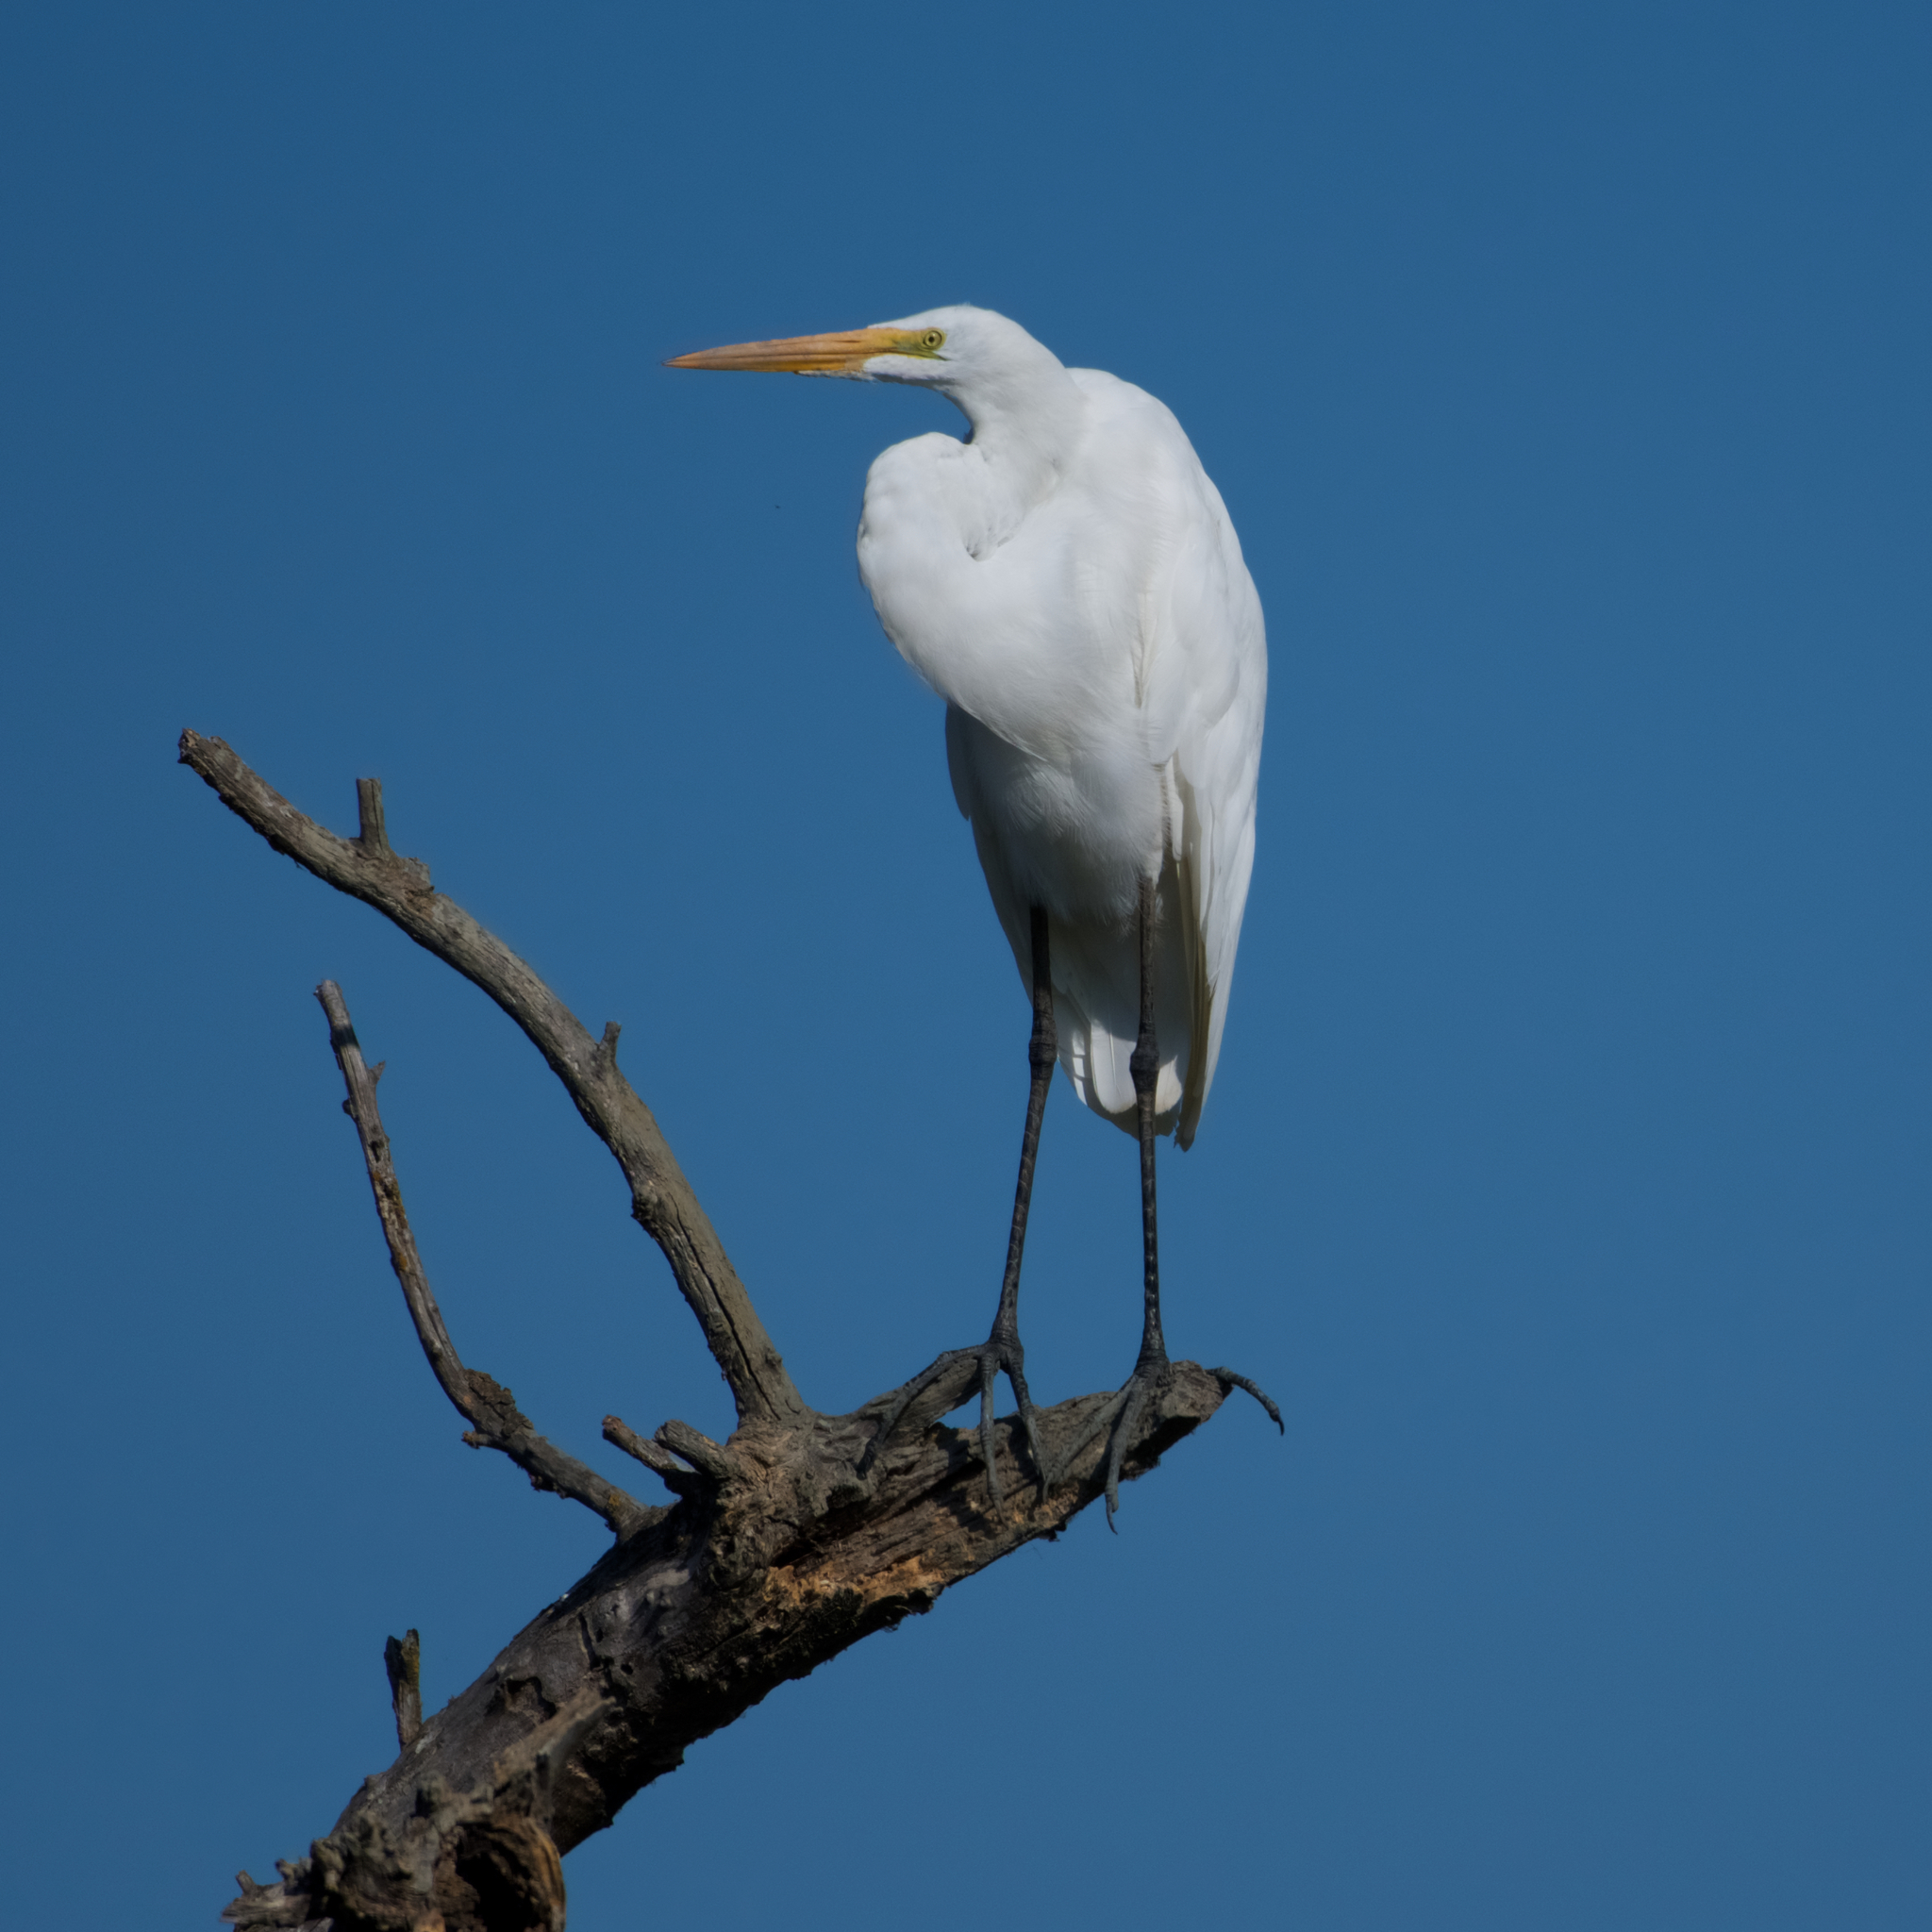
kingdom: Animalia
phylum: Chordata
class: Aves
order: Pelecaniformes
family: Ardeidae
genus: Ardea
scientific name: Ardea alba
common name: Great egret
